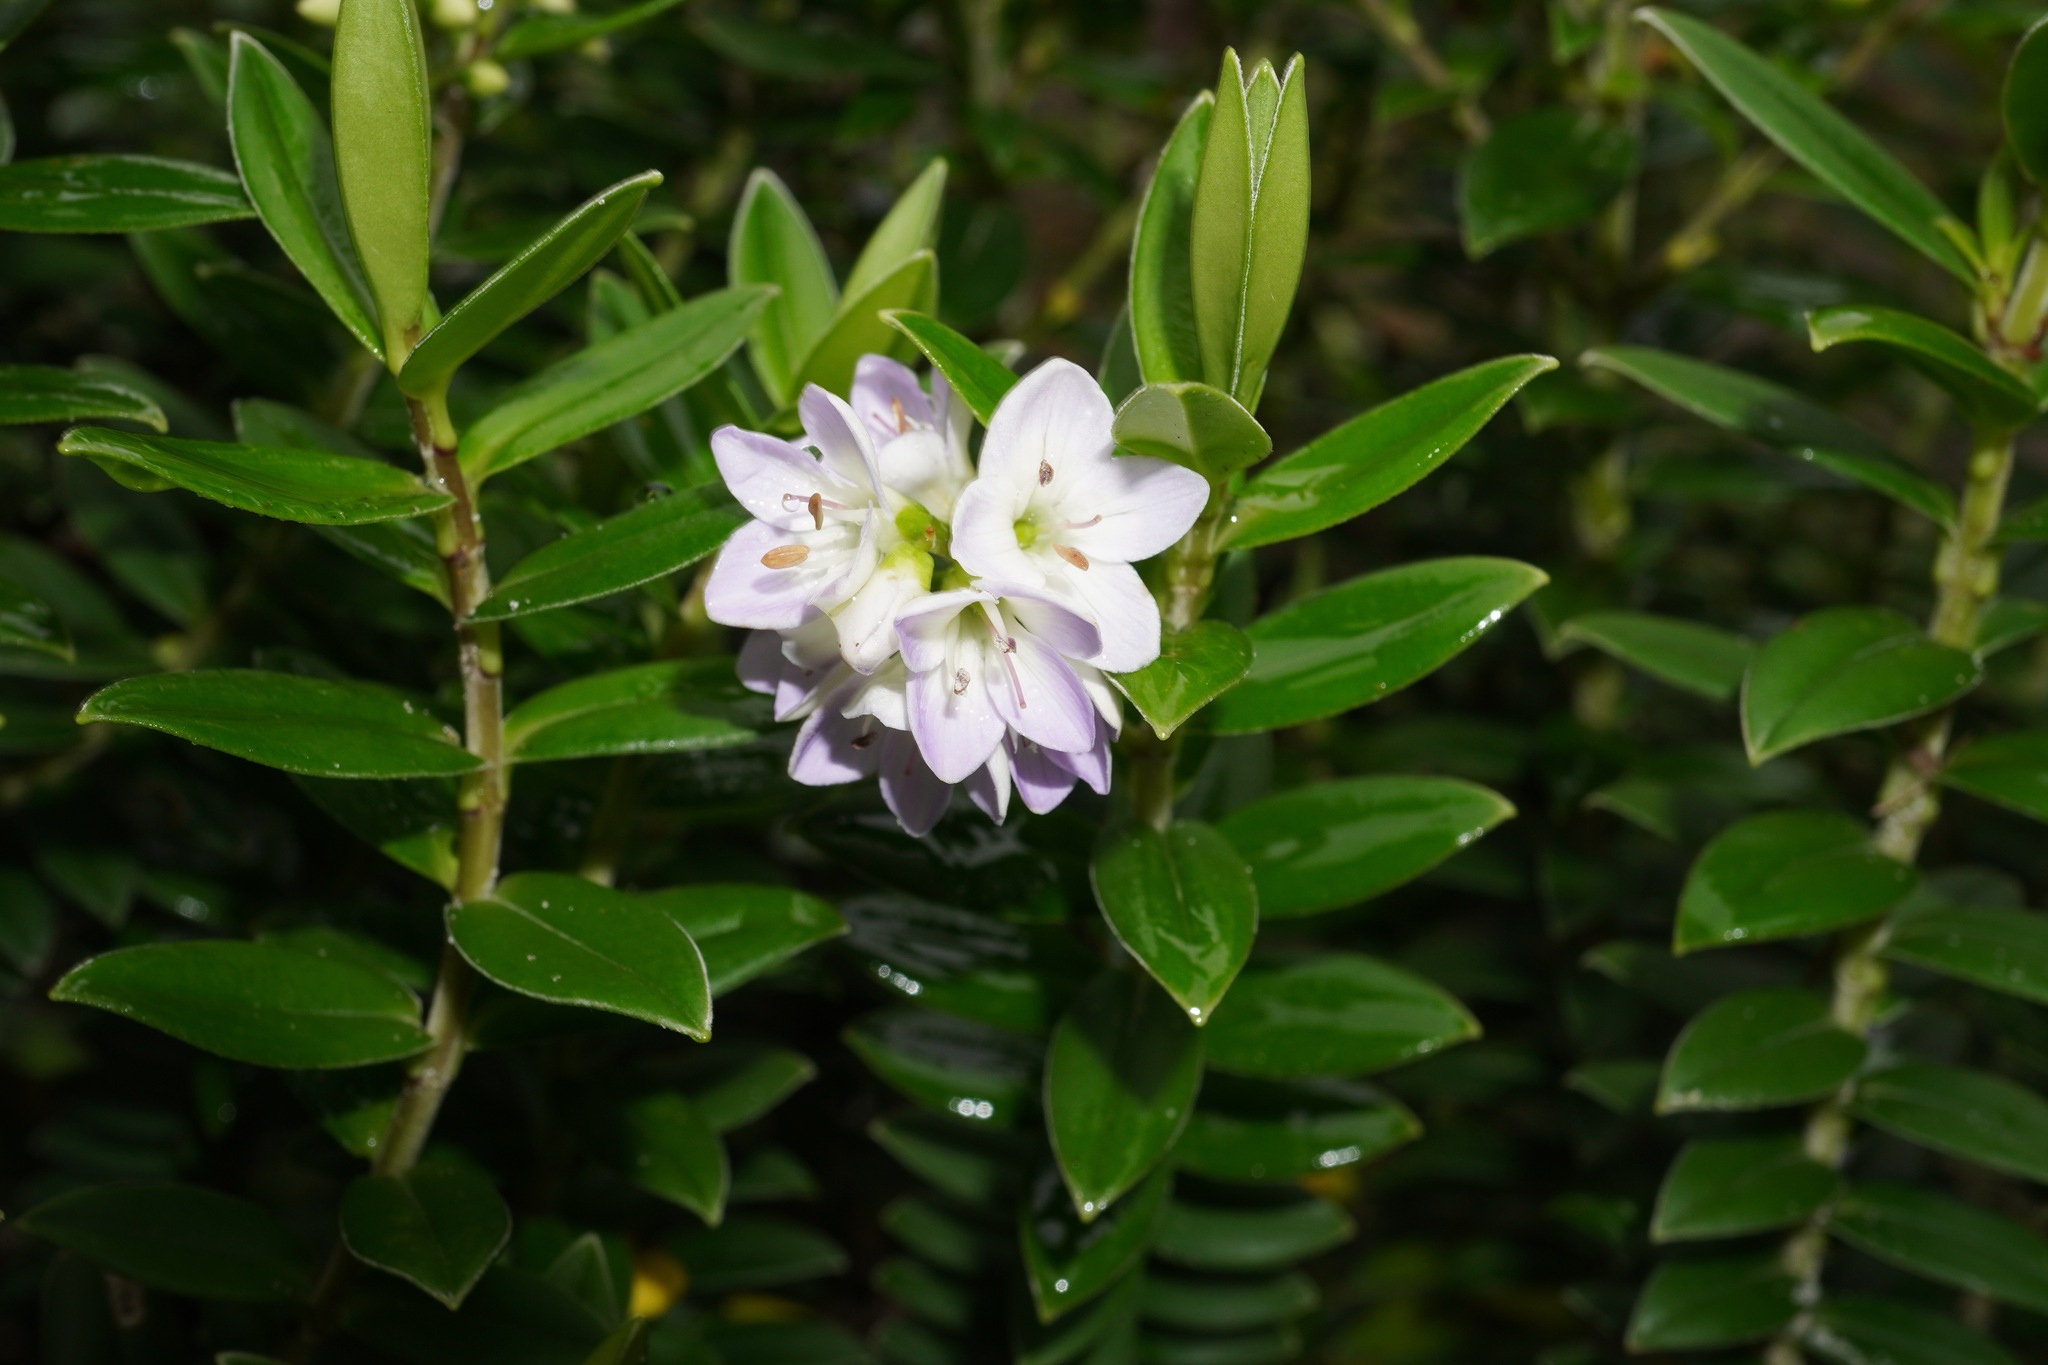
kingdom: Plantae
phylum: Tracheophyta
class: Magnoliopsida
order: Lamiales
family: Plantaginaceae
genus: Veronica
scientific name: Veronica elliptica
